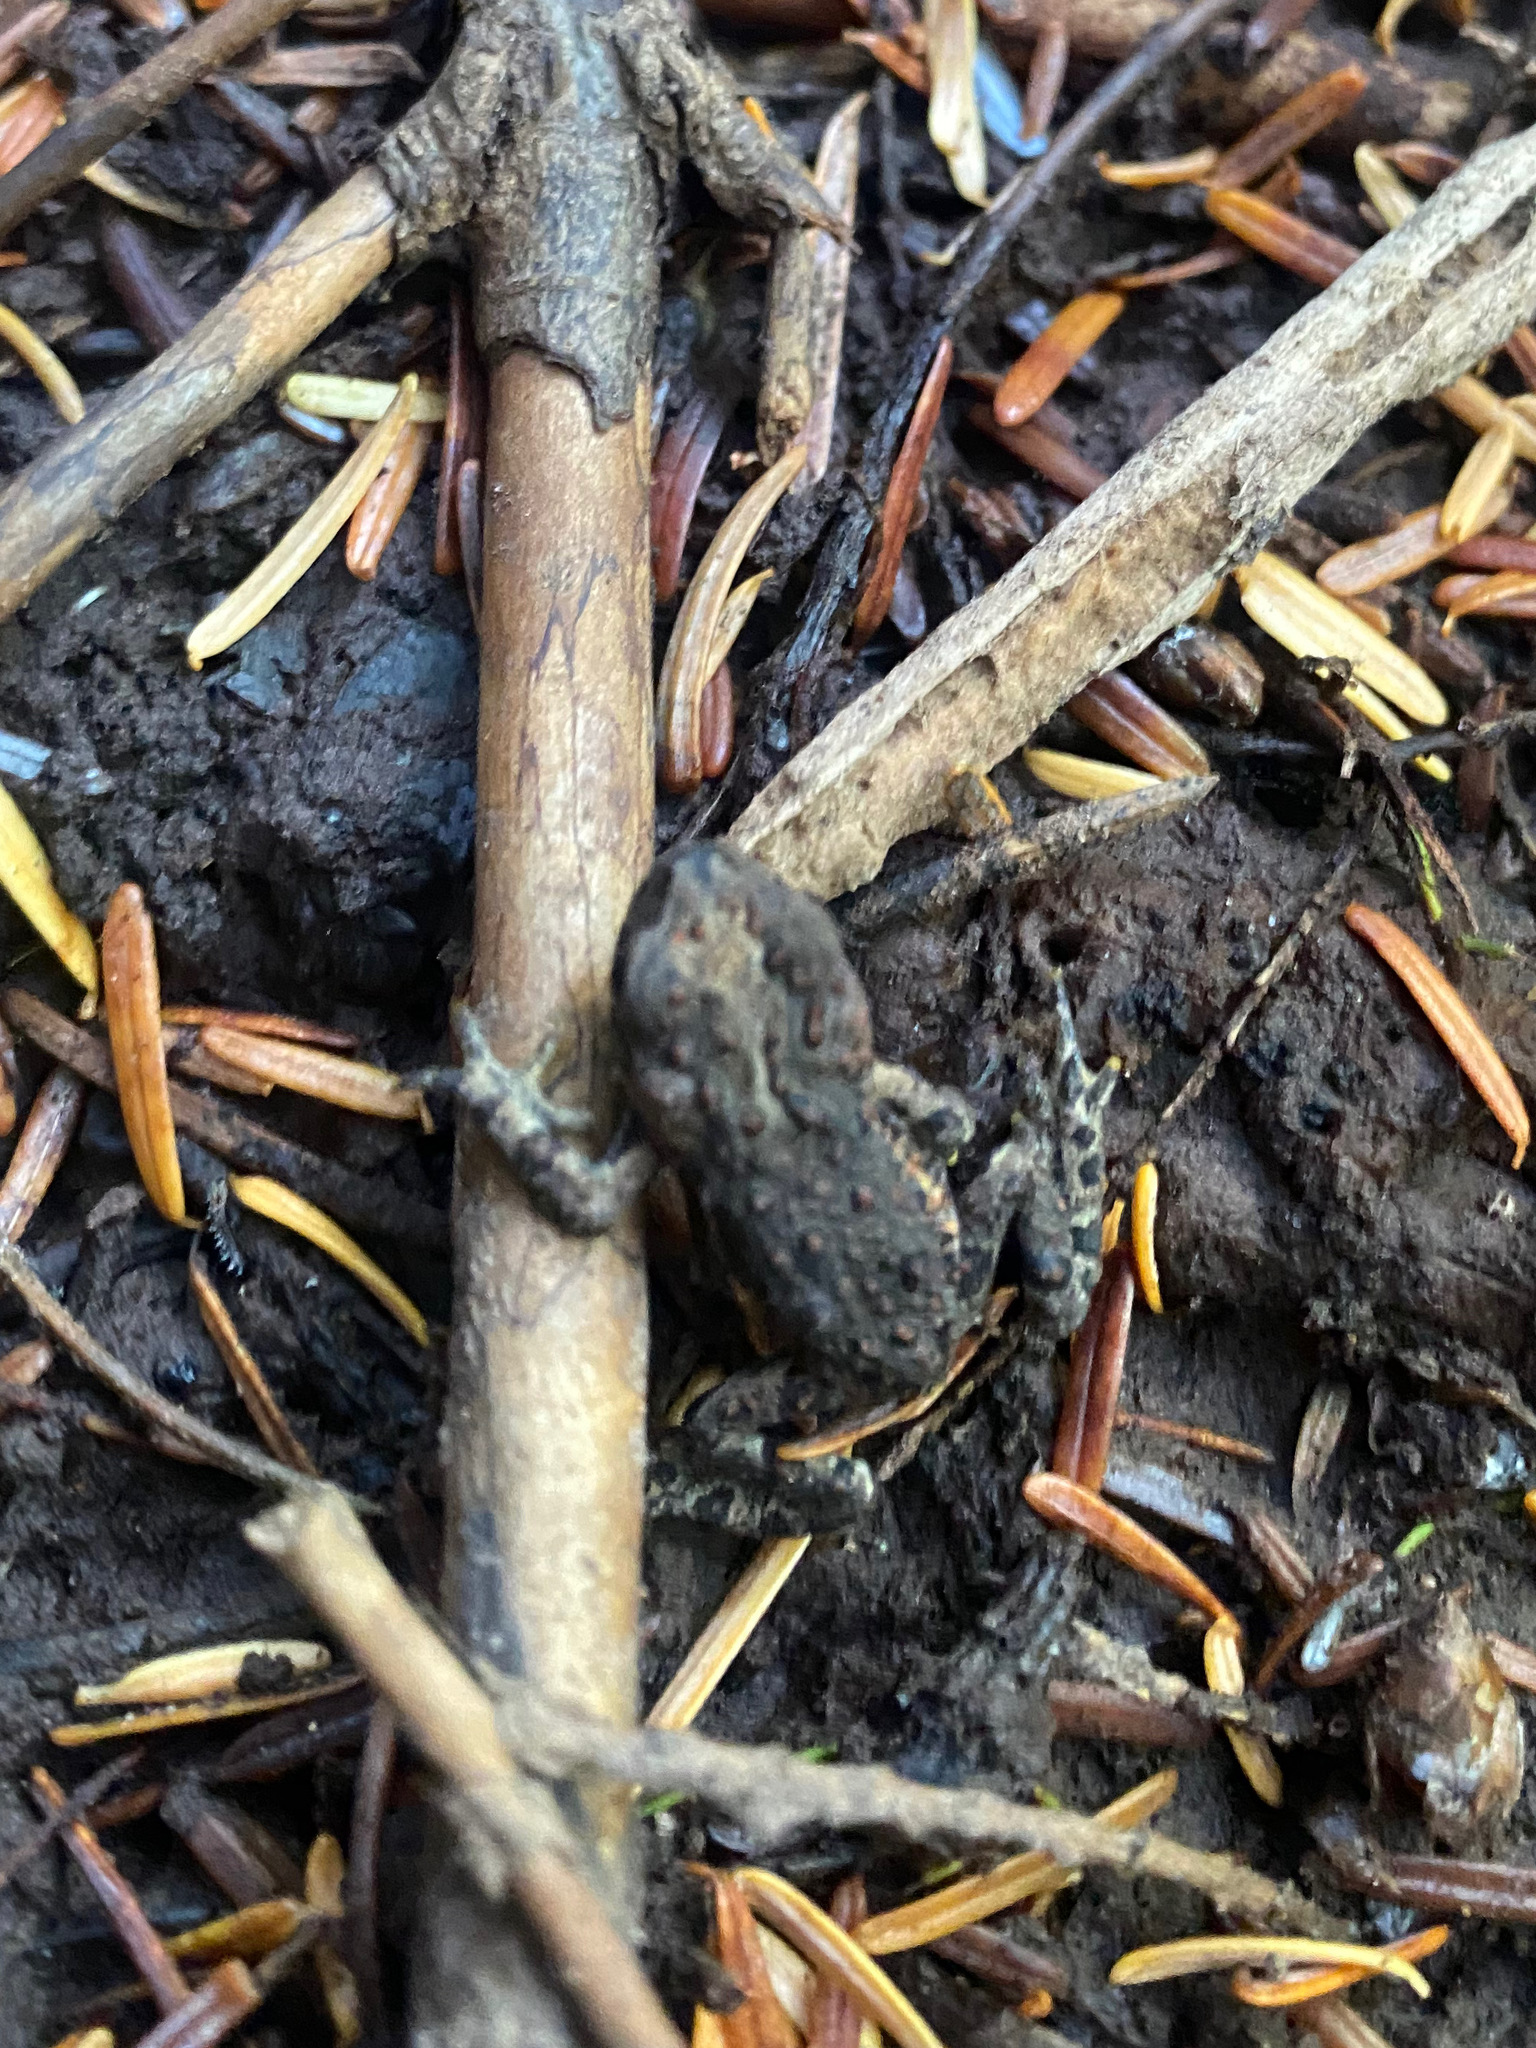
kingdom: Animalia
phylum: Chordata
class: Amphibia
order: Anura
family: Bufonidae
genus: Anaxyrus
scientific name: Anaxyrus boreas
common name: Western toad
